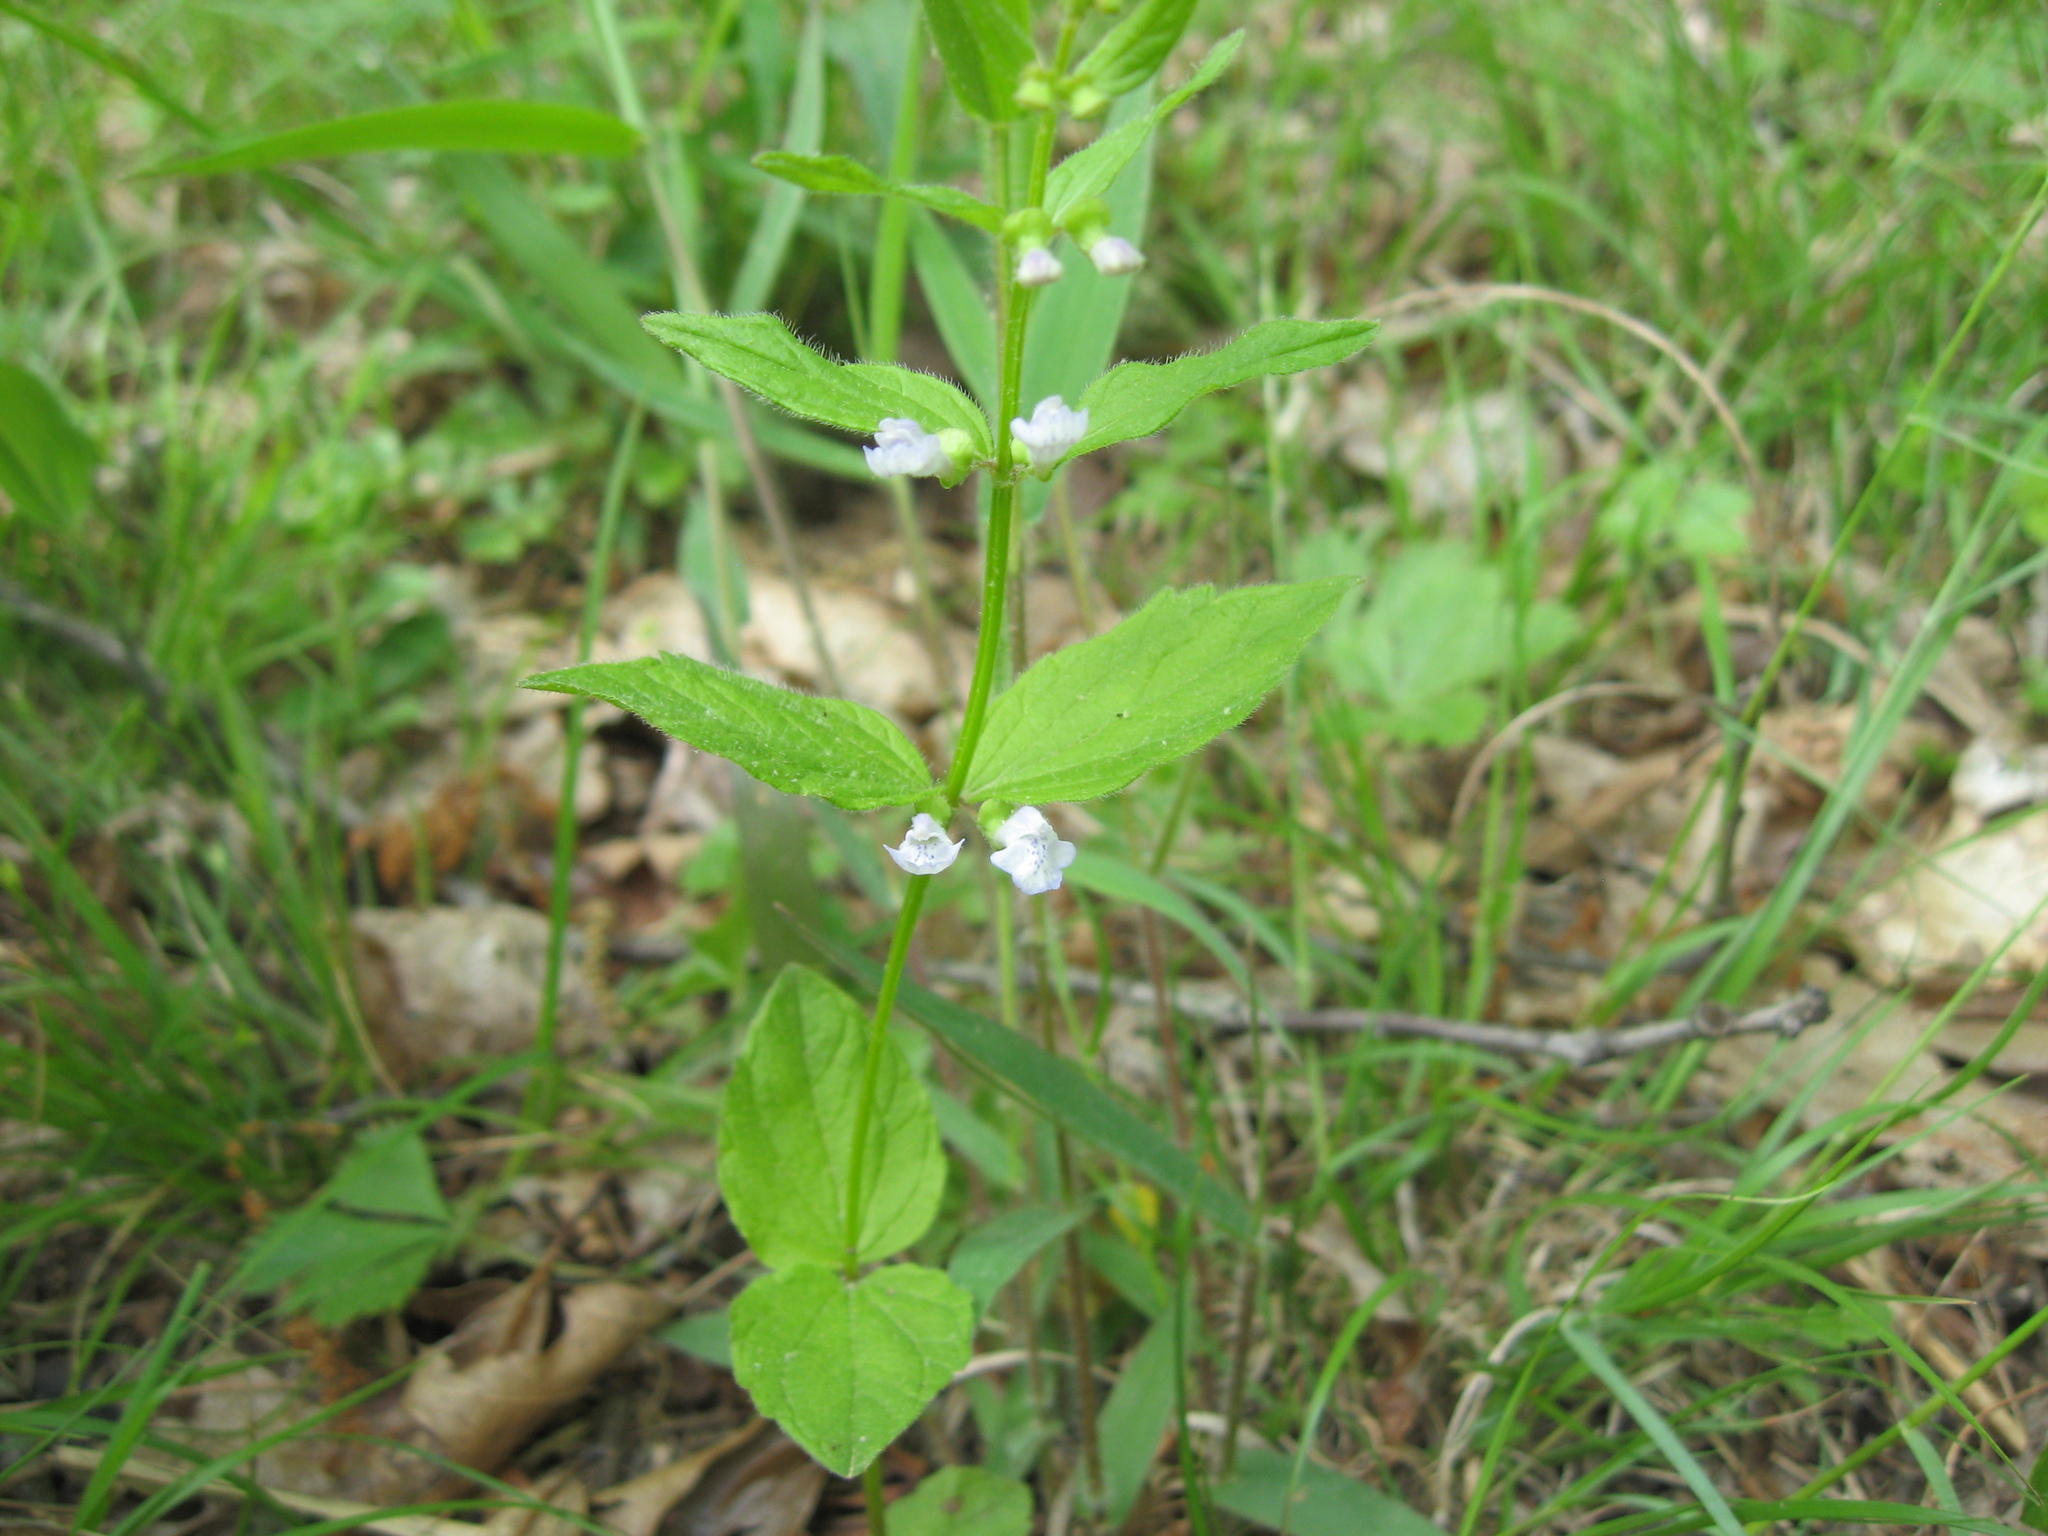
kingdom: Plantae
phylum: Tracheophyta
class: Magnoliopsida
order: Lamiales
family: Lamiaceae
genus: Scutellaria
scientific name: Scutellaria nervosa
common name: Bottomland skullcap
